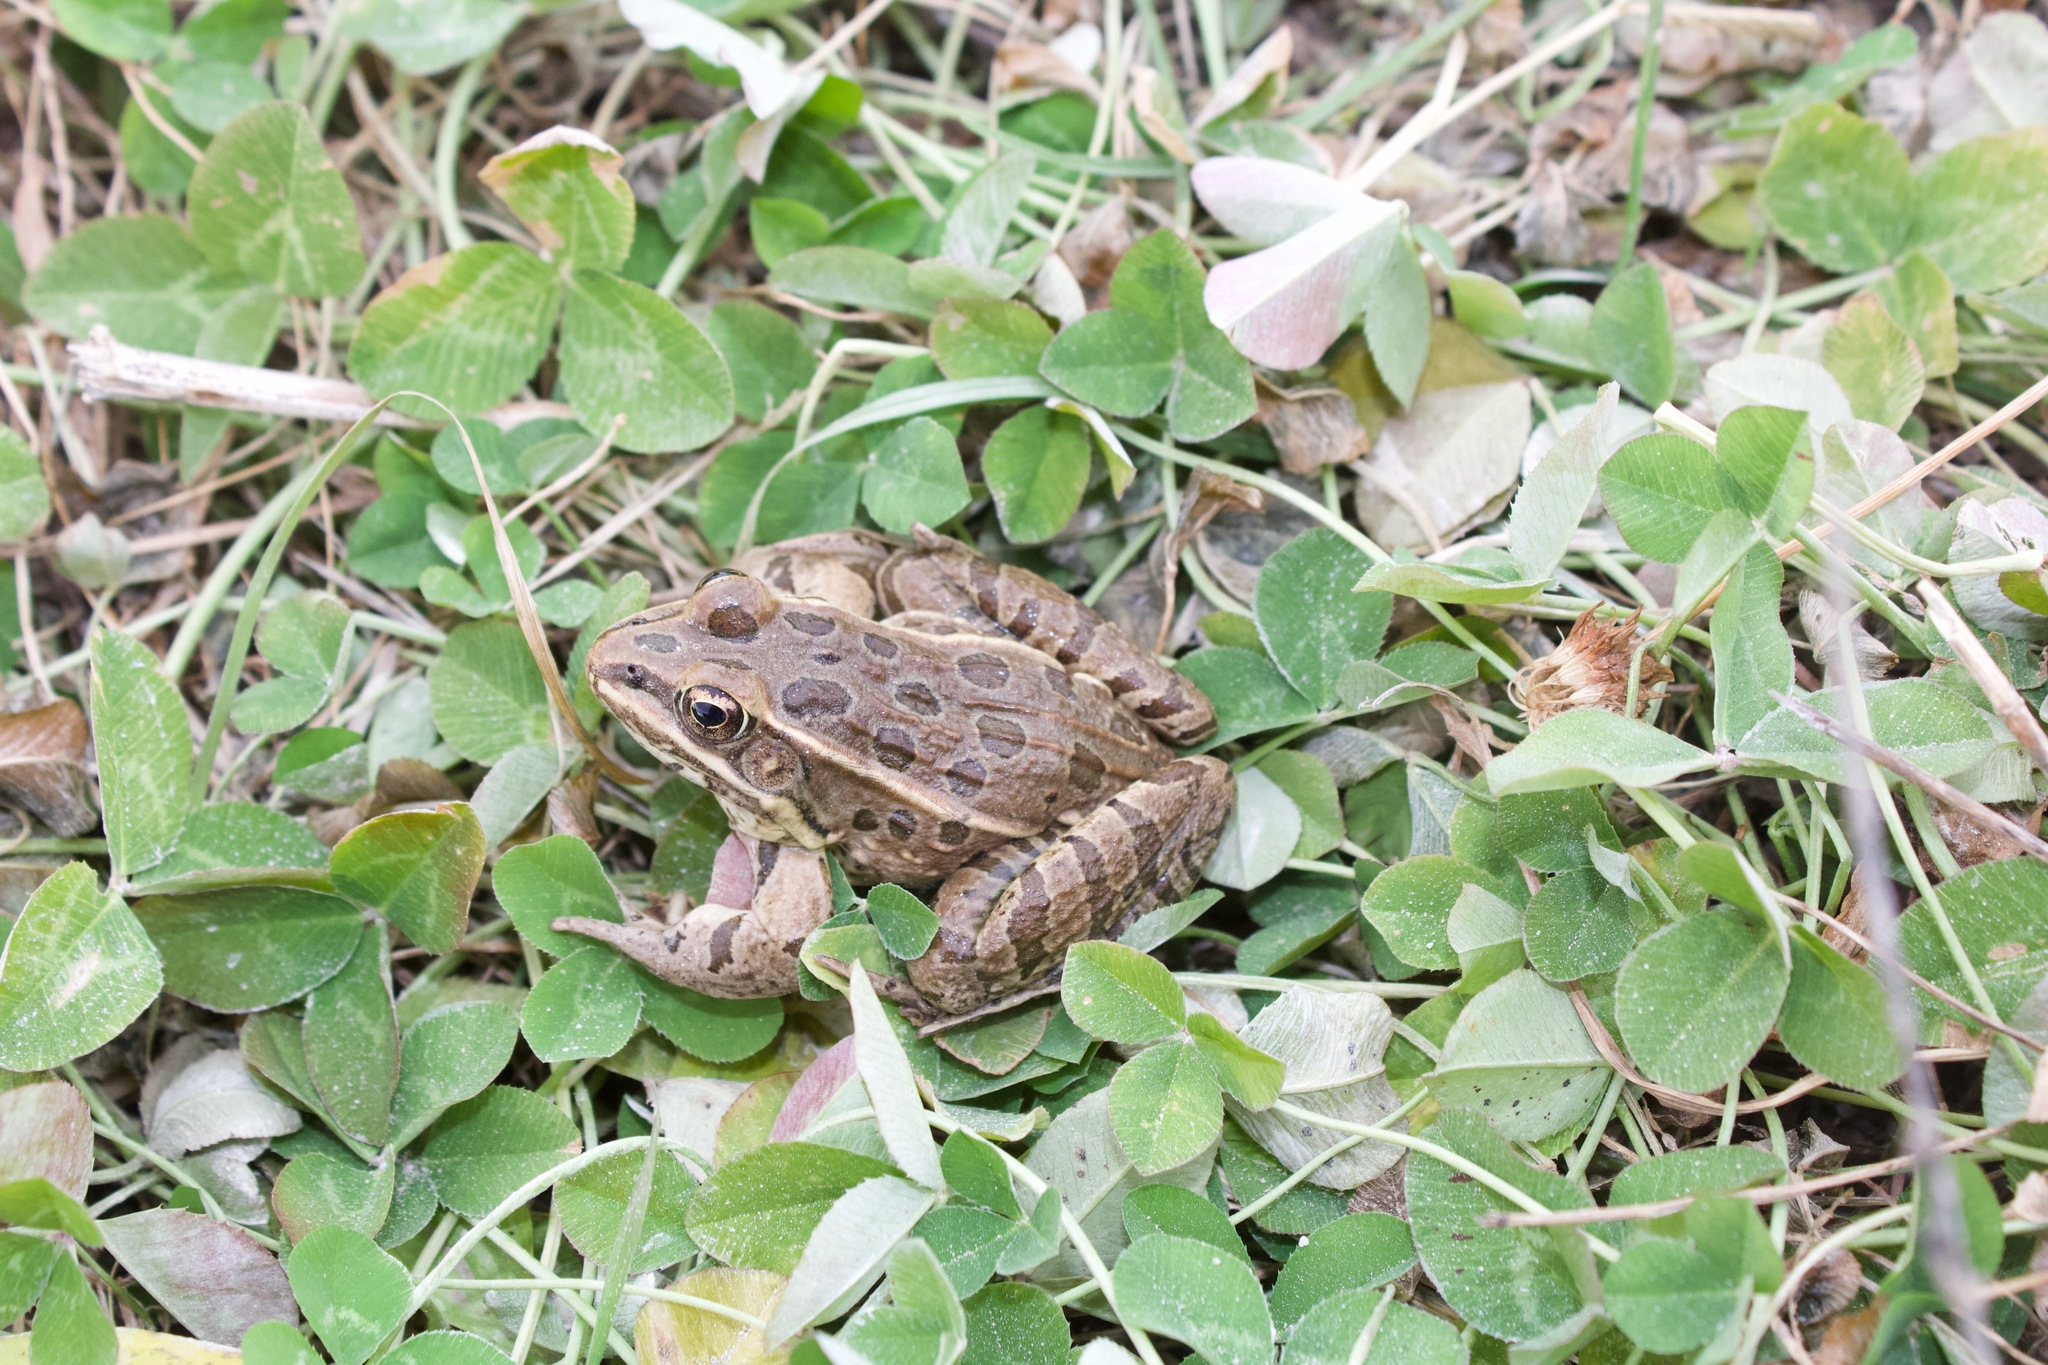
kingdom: Animalia
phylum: Chordata
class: Amphibia
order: Anura
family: Ranidae
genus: Lithobates
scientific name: Lithobates blairi
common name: Plains leopard frog
